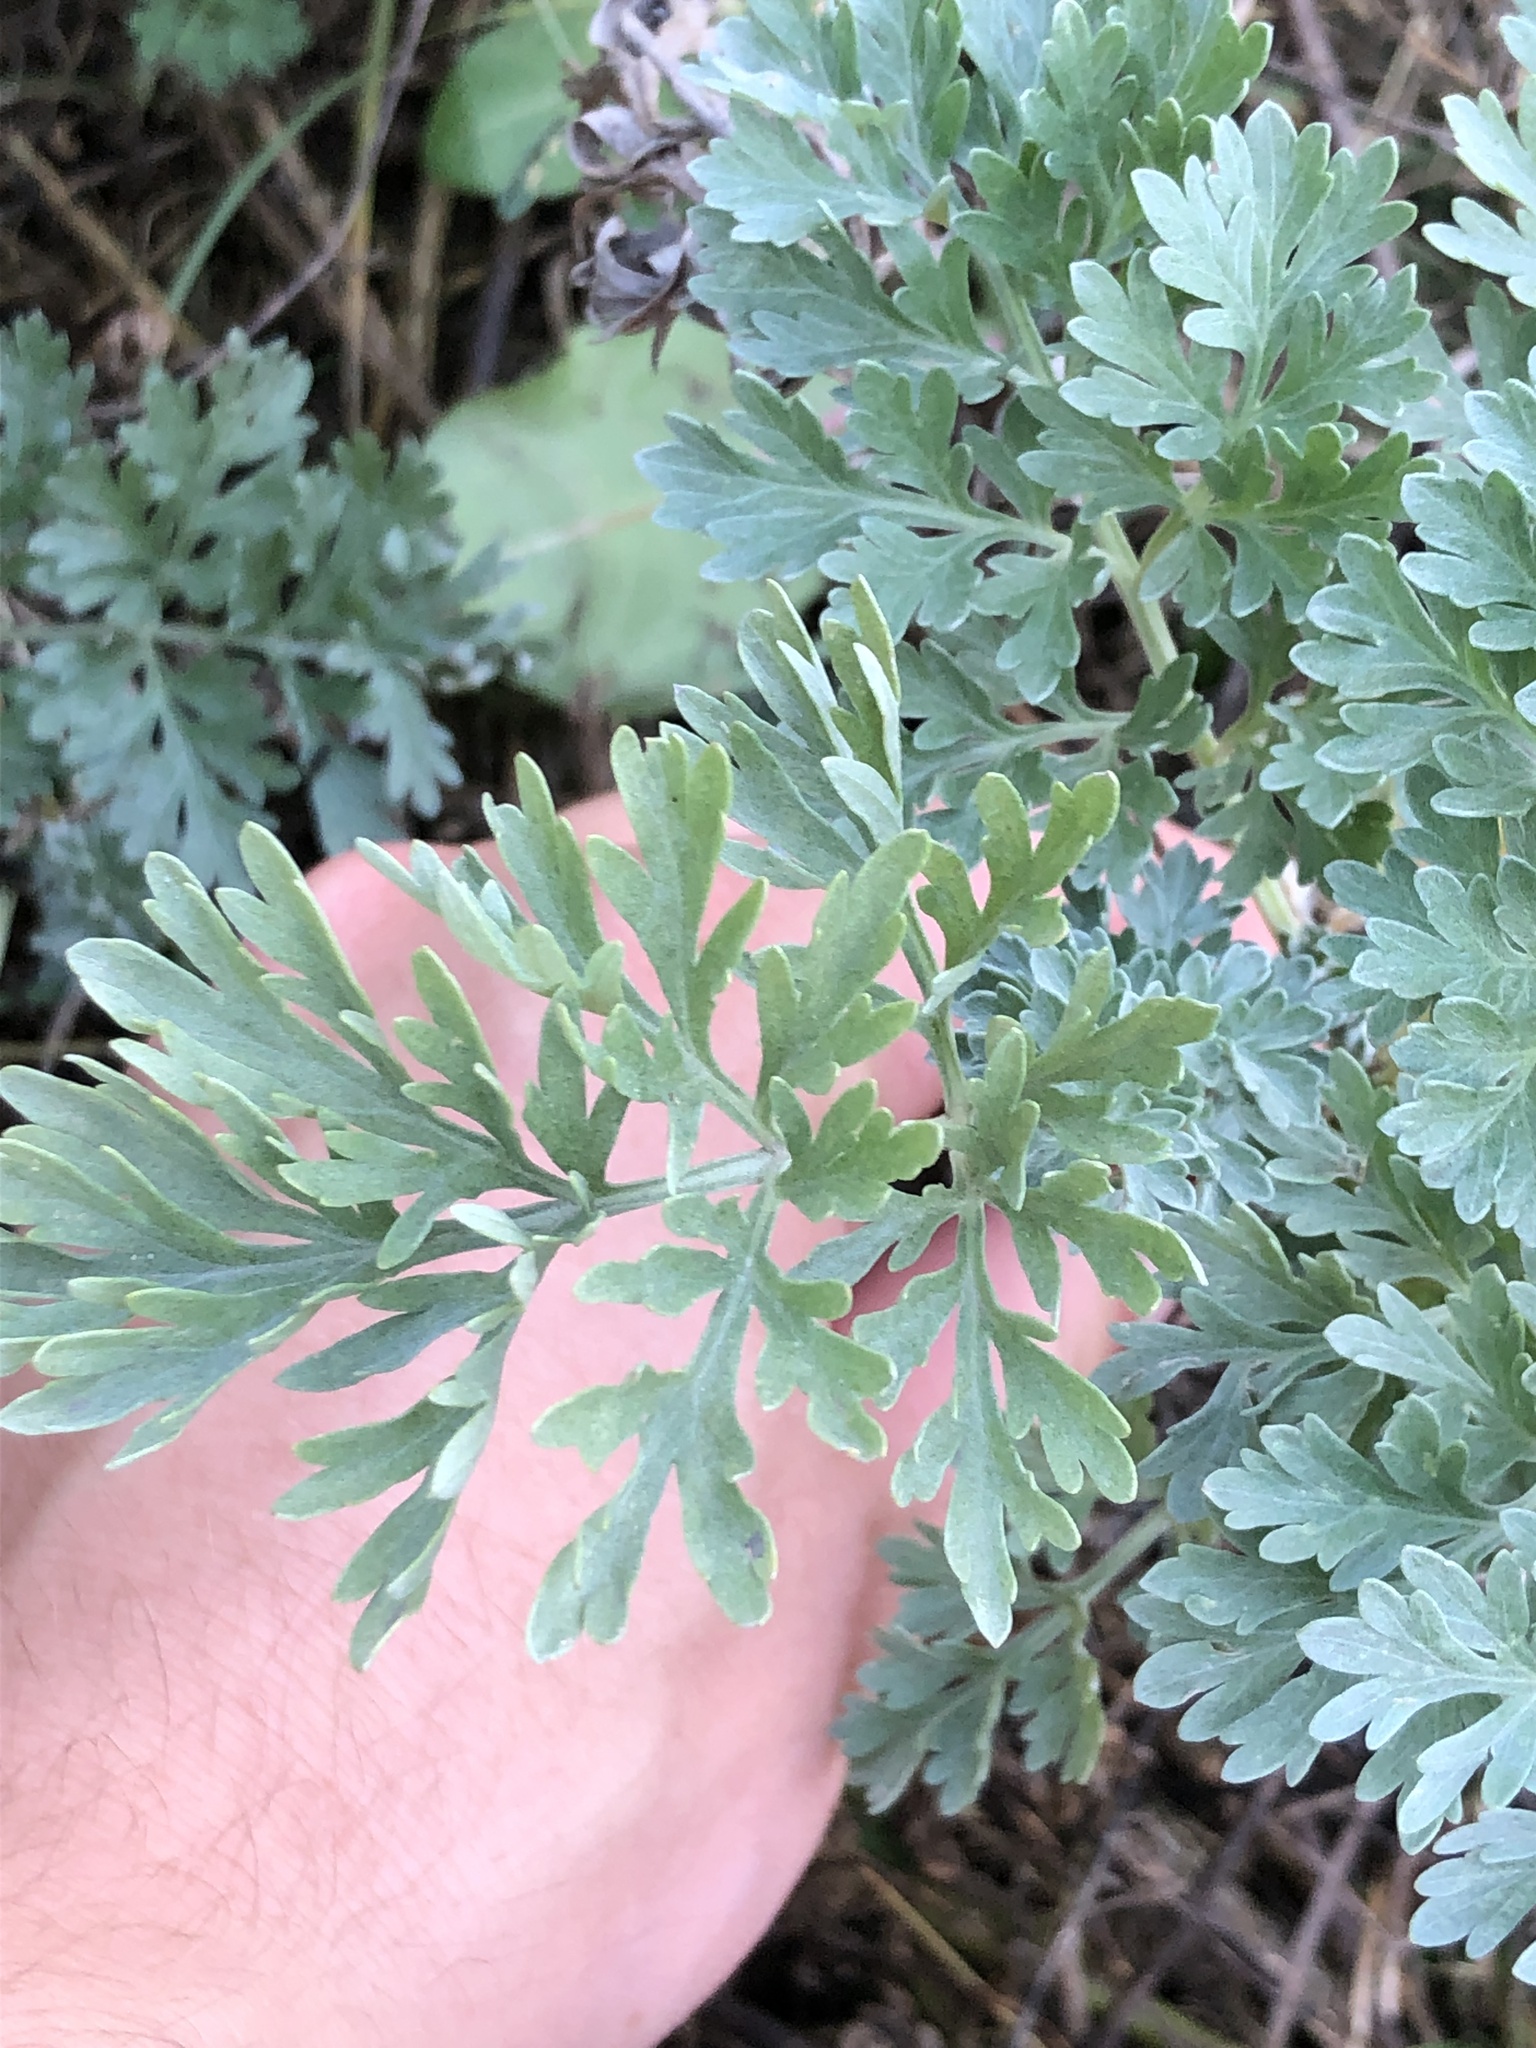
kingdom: Plantae
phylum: Tracheophyta
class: Magnoliopsida
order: Asterales
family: Asteraceae
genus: Artemisia
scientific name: Artemisia absinthium
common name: Wormwood
